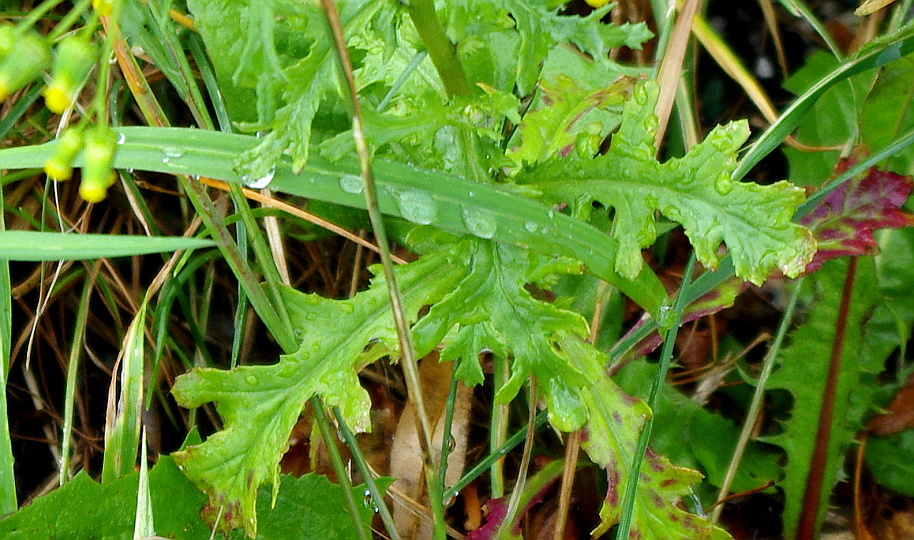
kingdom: Plantae
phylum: Tracheophyta
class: Magnoliopsida
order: Asterales
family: Asteraceae
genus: Senecio
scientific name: Senecio vulgaris
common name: Old-man-in-the-spring
